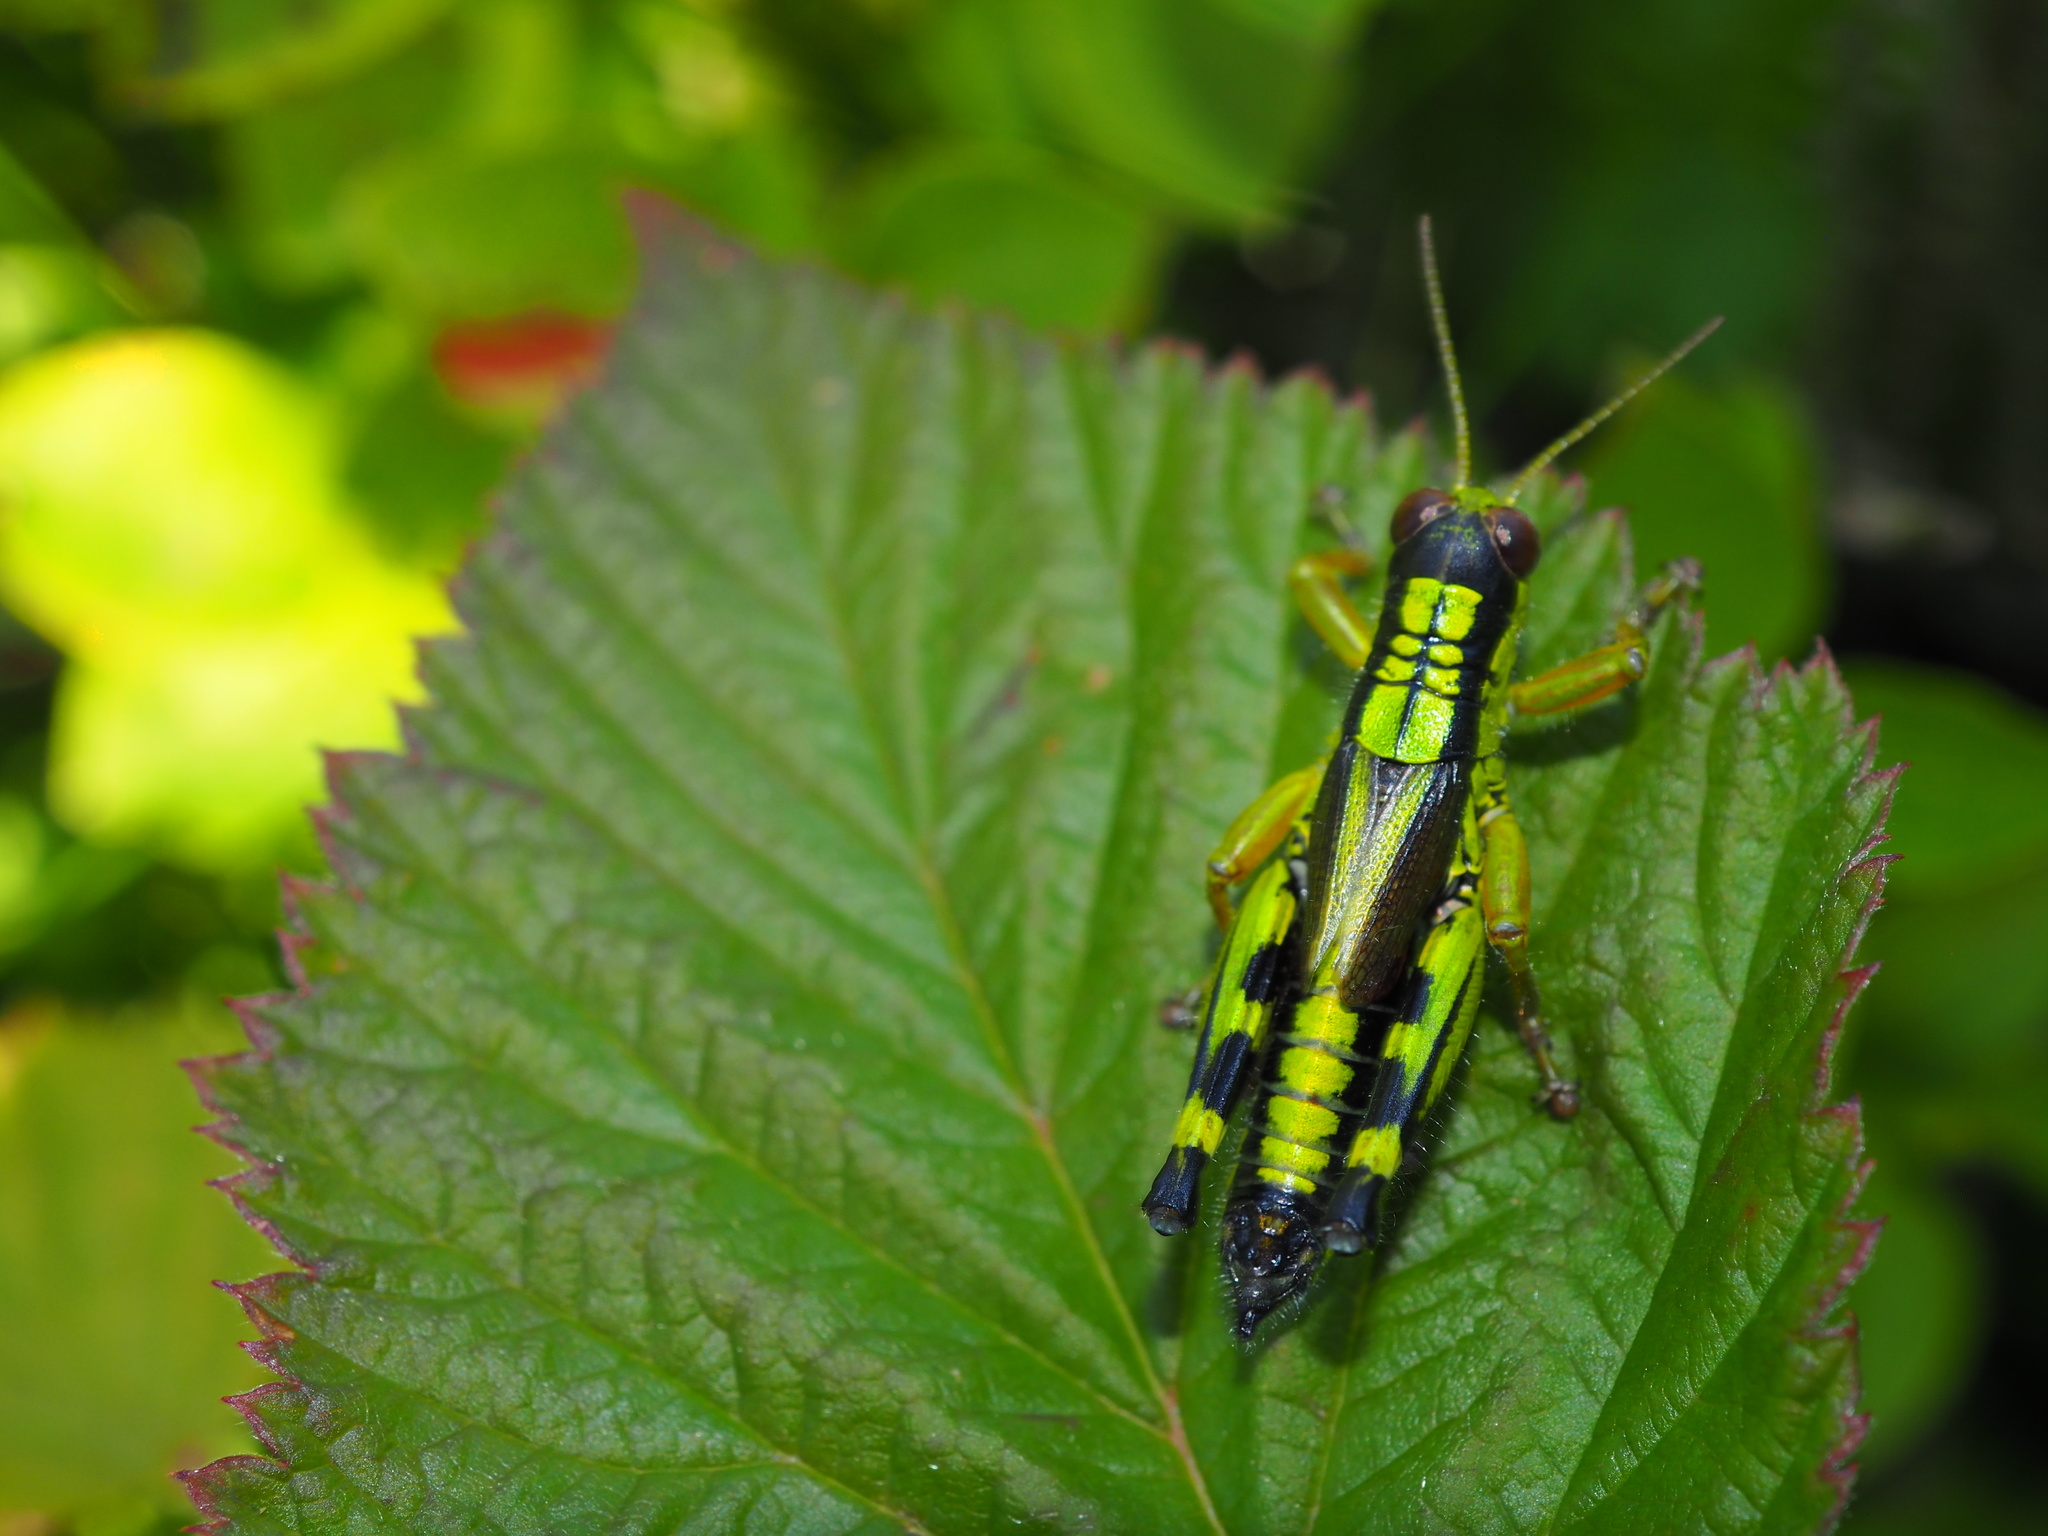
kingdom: Animalia
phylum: Arthropoda
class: Insecta
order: Orthoptera
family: Acrididae
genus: Miramella
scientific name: Miramella frinias
